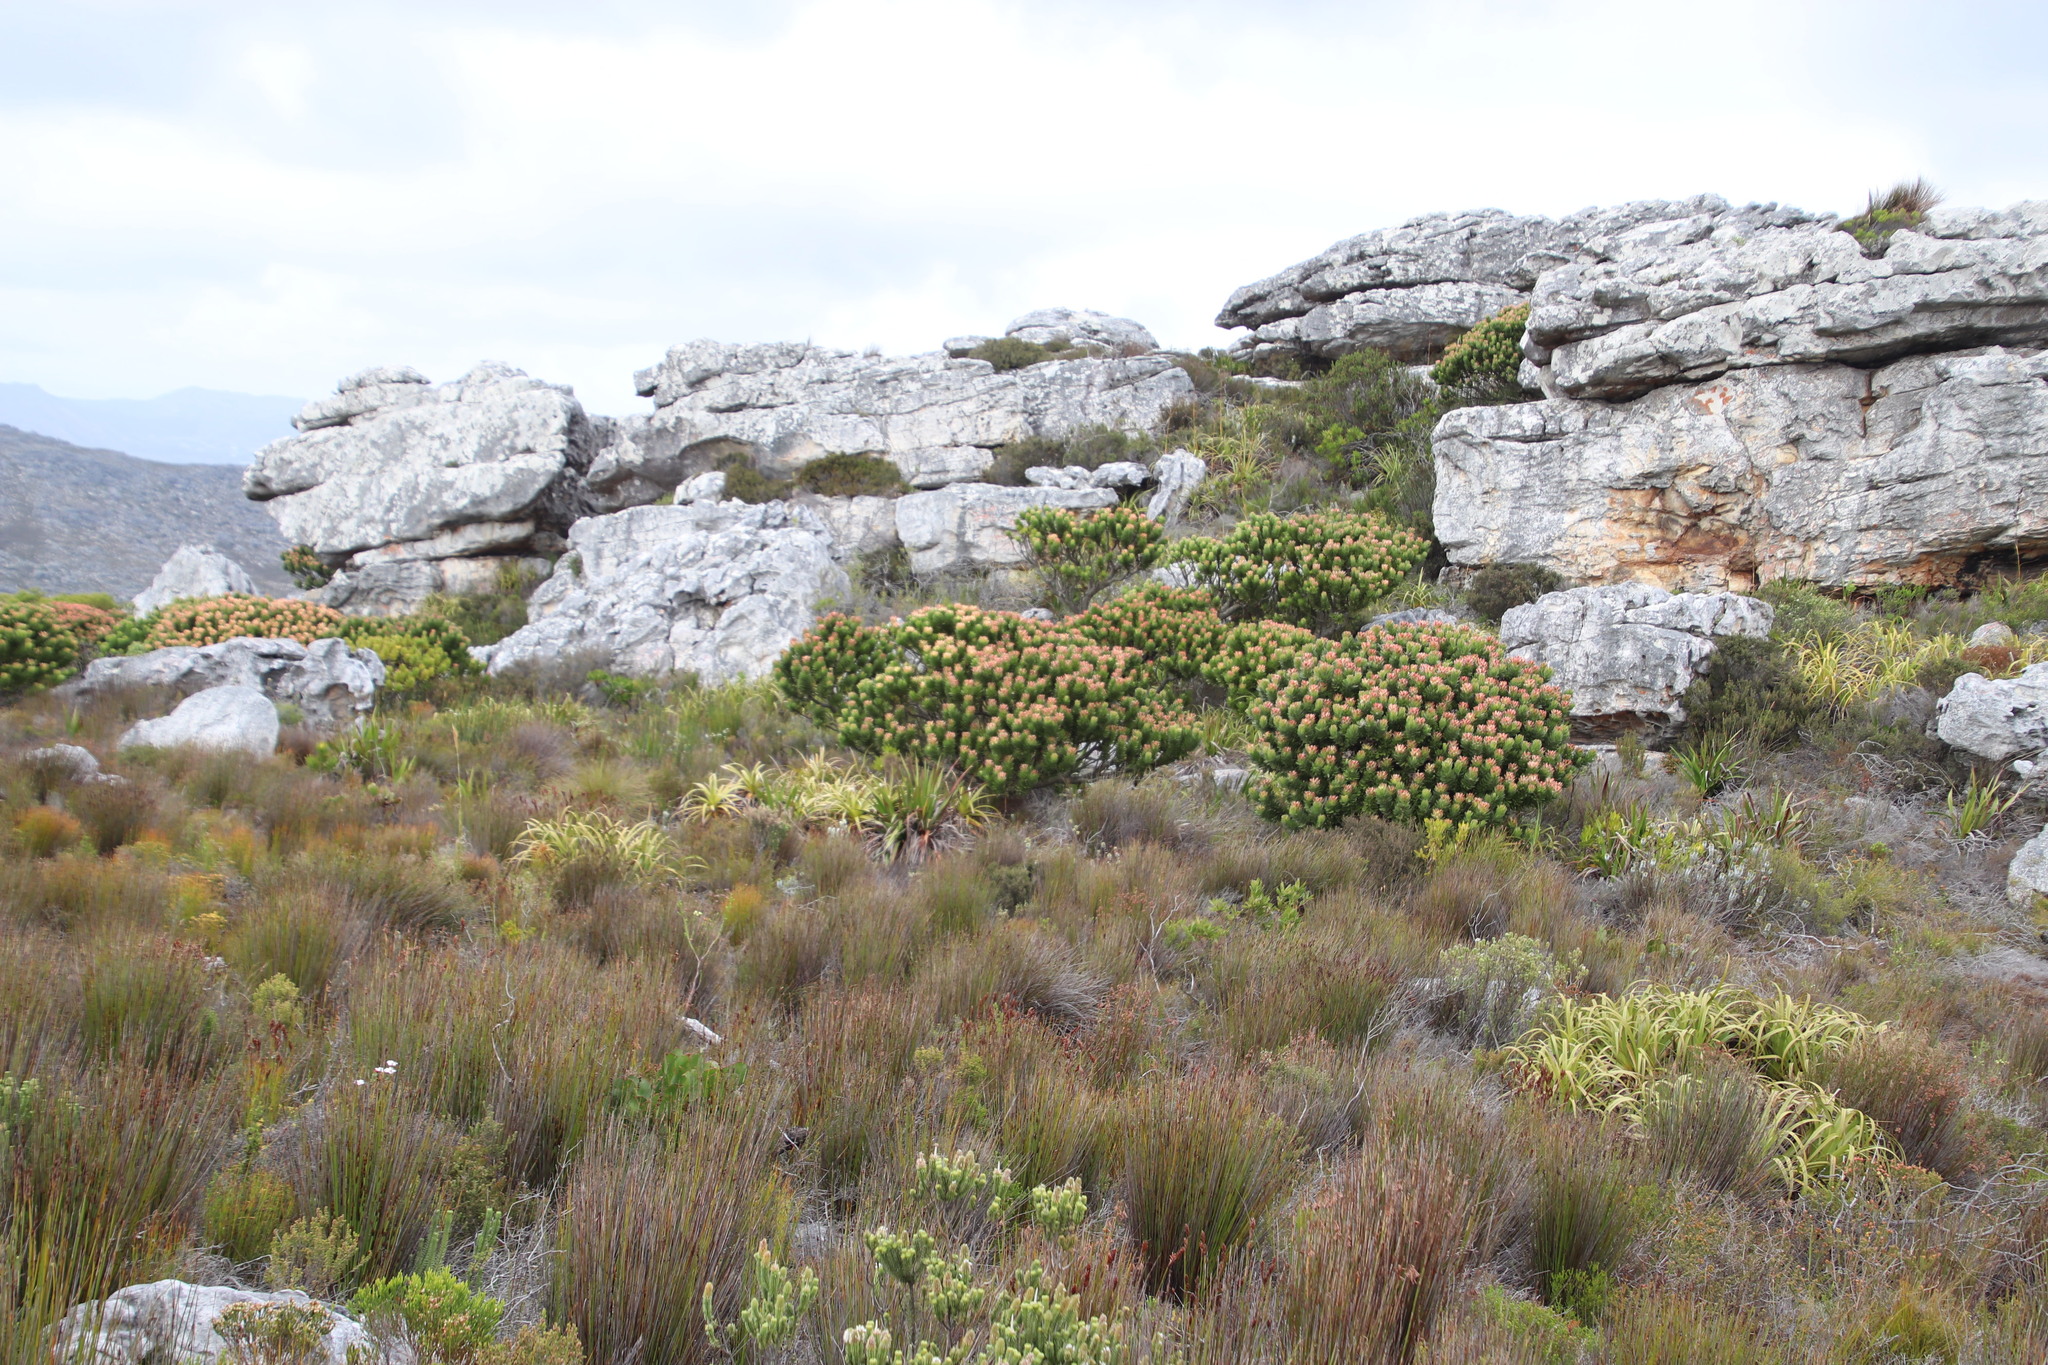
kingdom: Plantae
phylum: Tracheophyta
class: Magnoliopsida
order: Proteales
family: Proteaceae
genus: Mimetes
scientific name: Mimetes fimbriifolius
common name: Fringed bottlebrush
